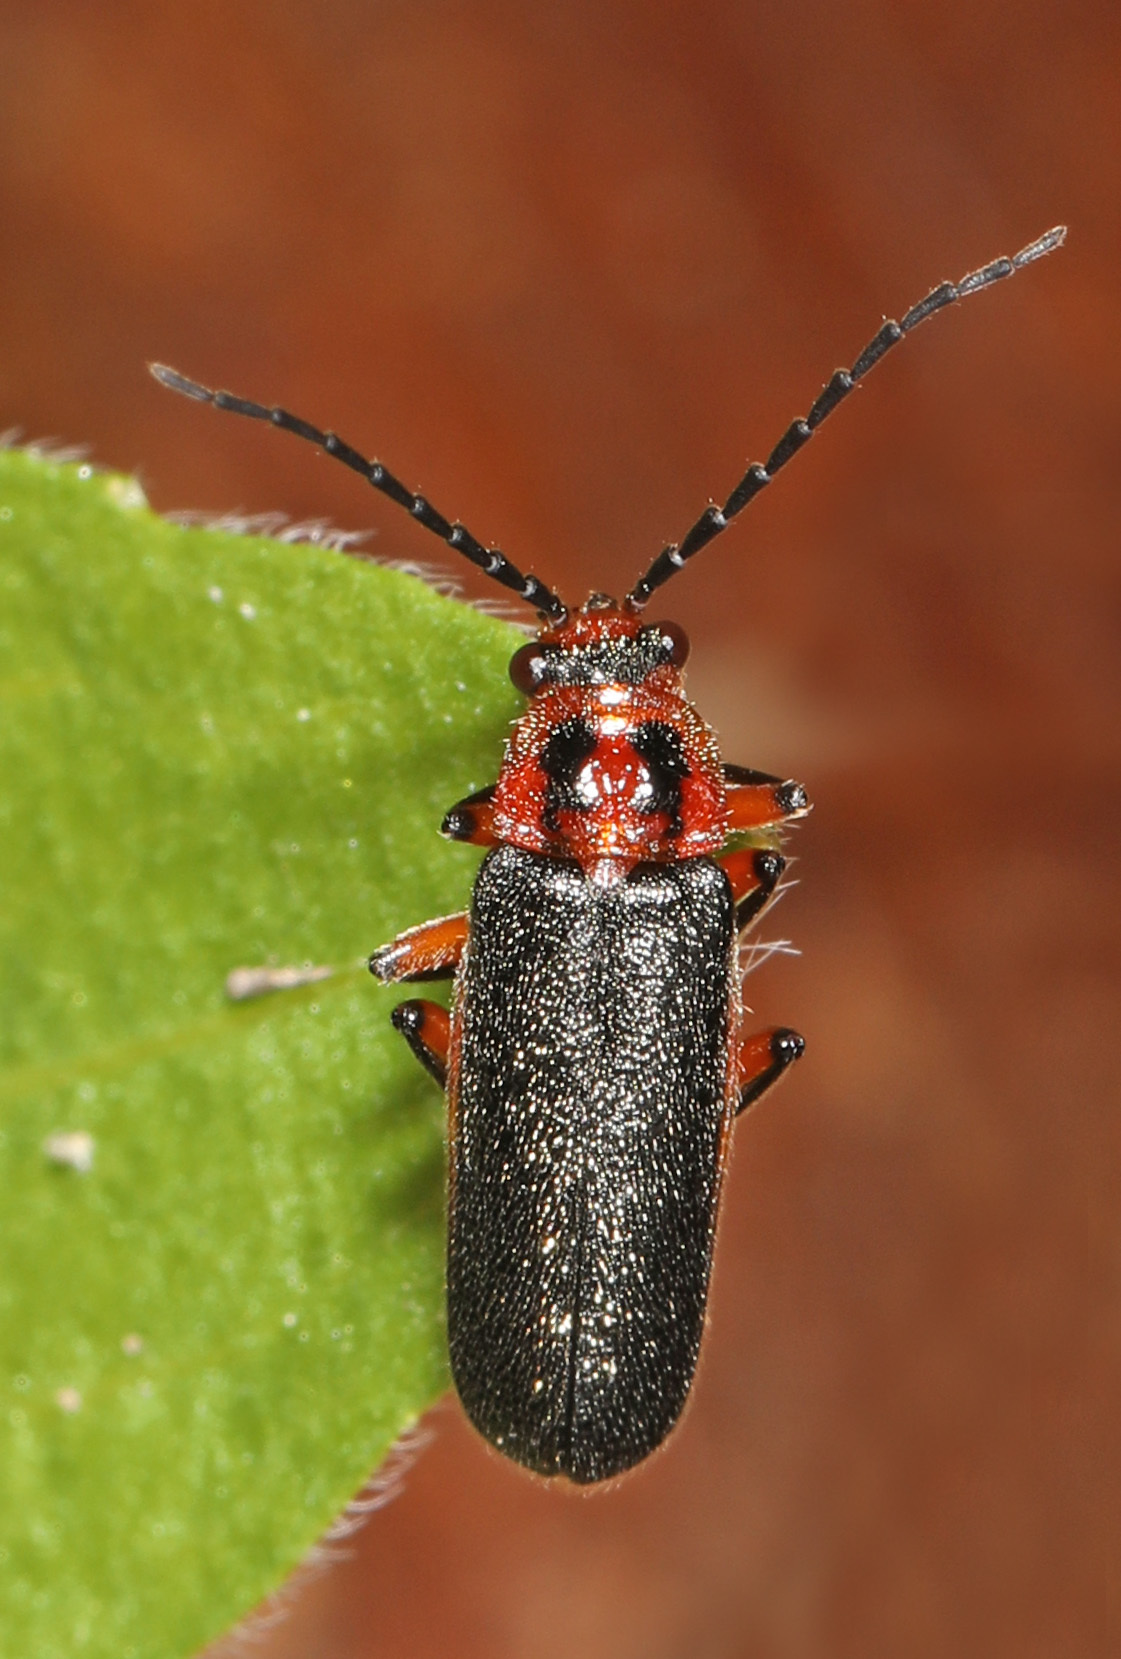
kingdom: Animalia
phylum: Arthropoda
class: Insecta
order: Coleoptera
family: Cantharidae
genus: Atalantycha
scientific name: Atalantycha bilineata
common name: Two-lined leatherwing
